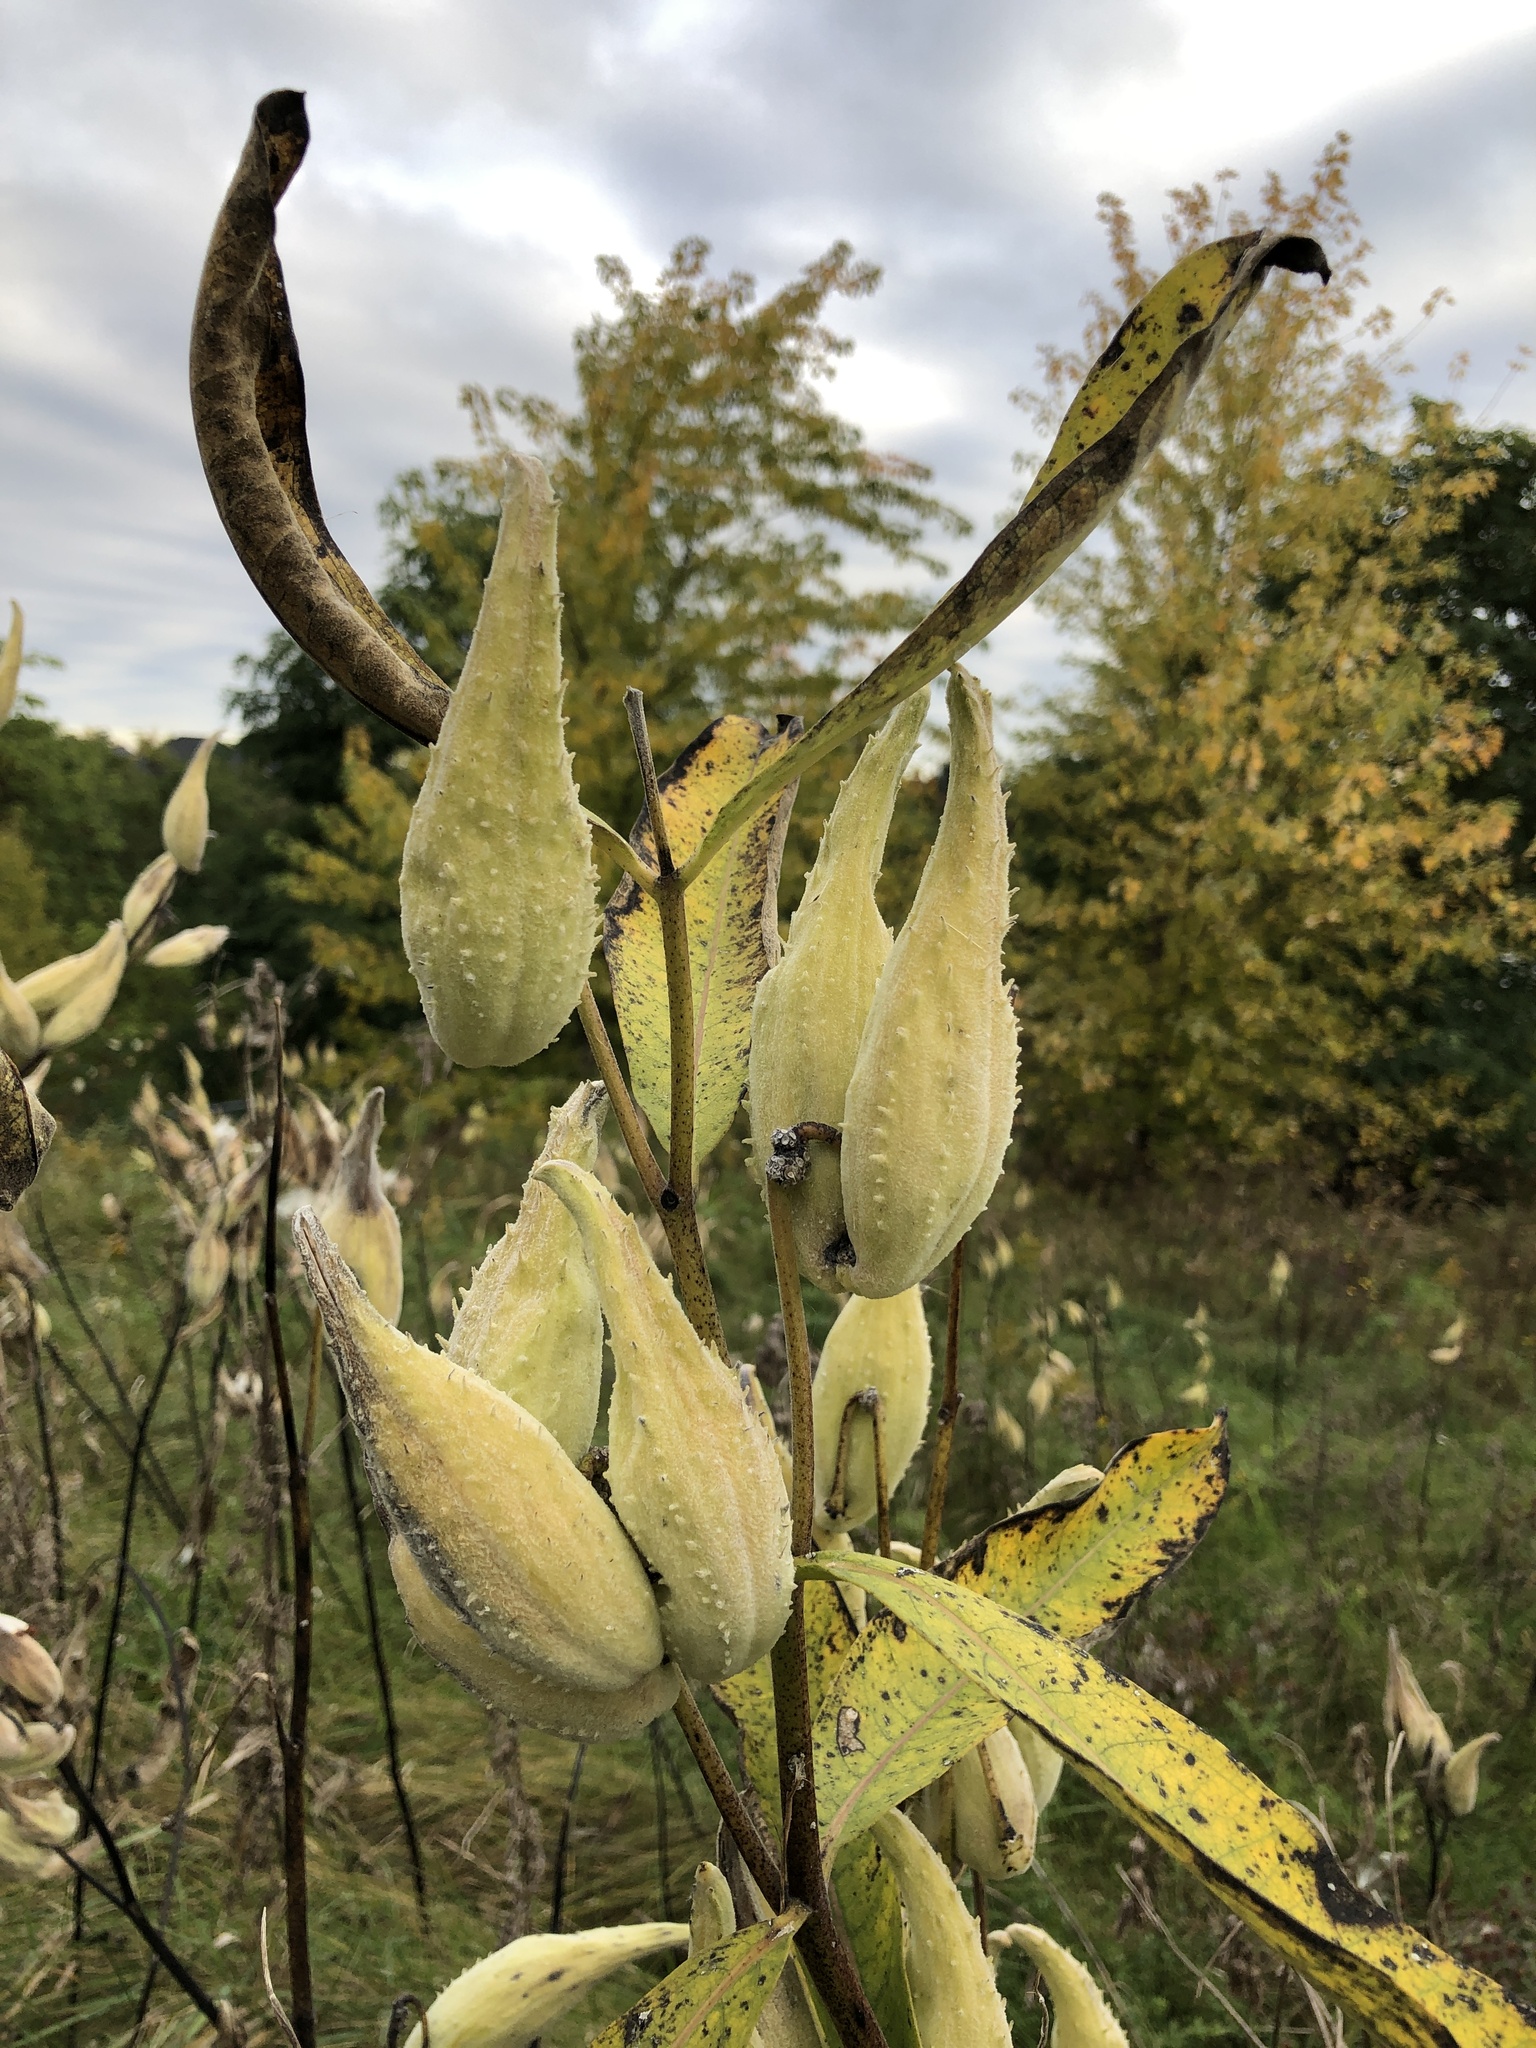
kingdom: Plantae
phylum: Tracheophyta
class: Magnoliopsida
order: Gentianales
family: Apocynaceae
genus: Asclepias
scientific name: Asclepias syriaca
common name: Common milkweed
